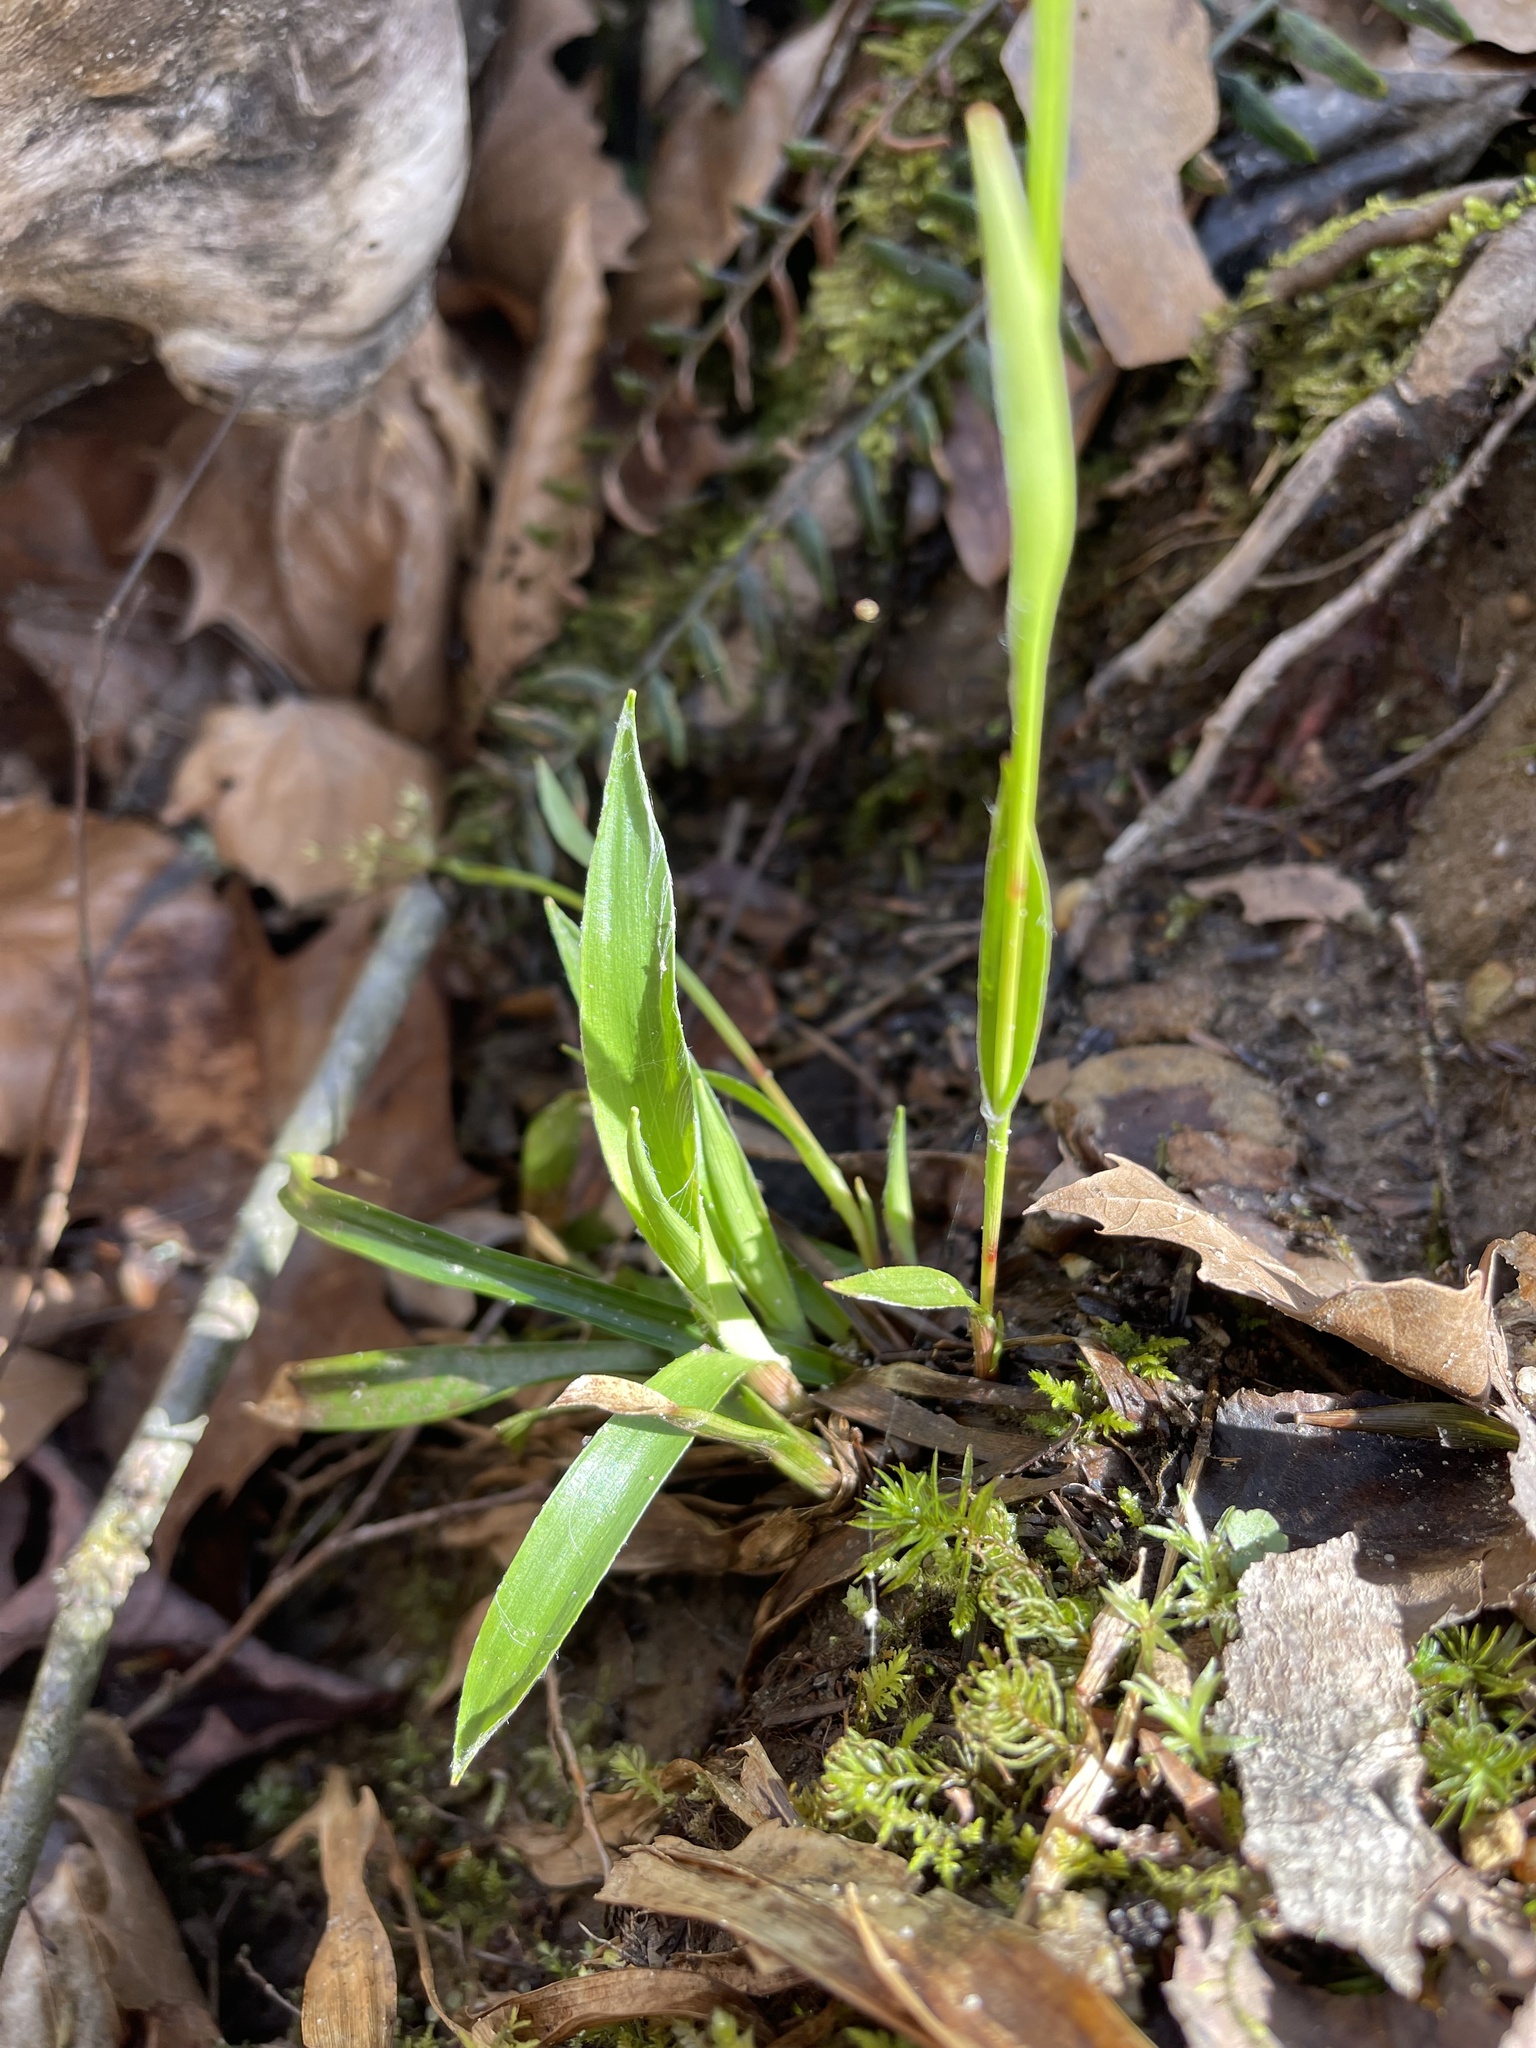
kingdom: Plantae
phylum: Tracheophyta
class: Liliopsida
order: Poales
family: Juncaceae
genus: Luzula
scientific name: Luzula acuminata
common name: Hairy woodrush
